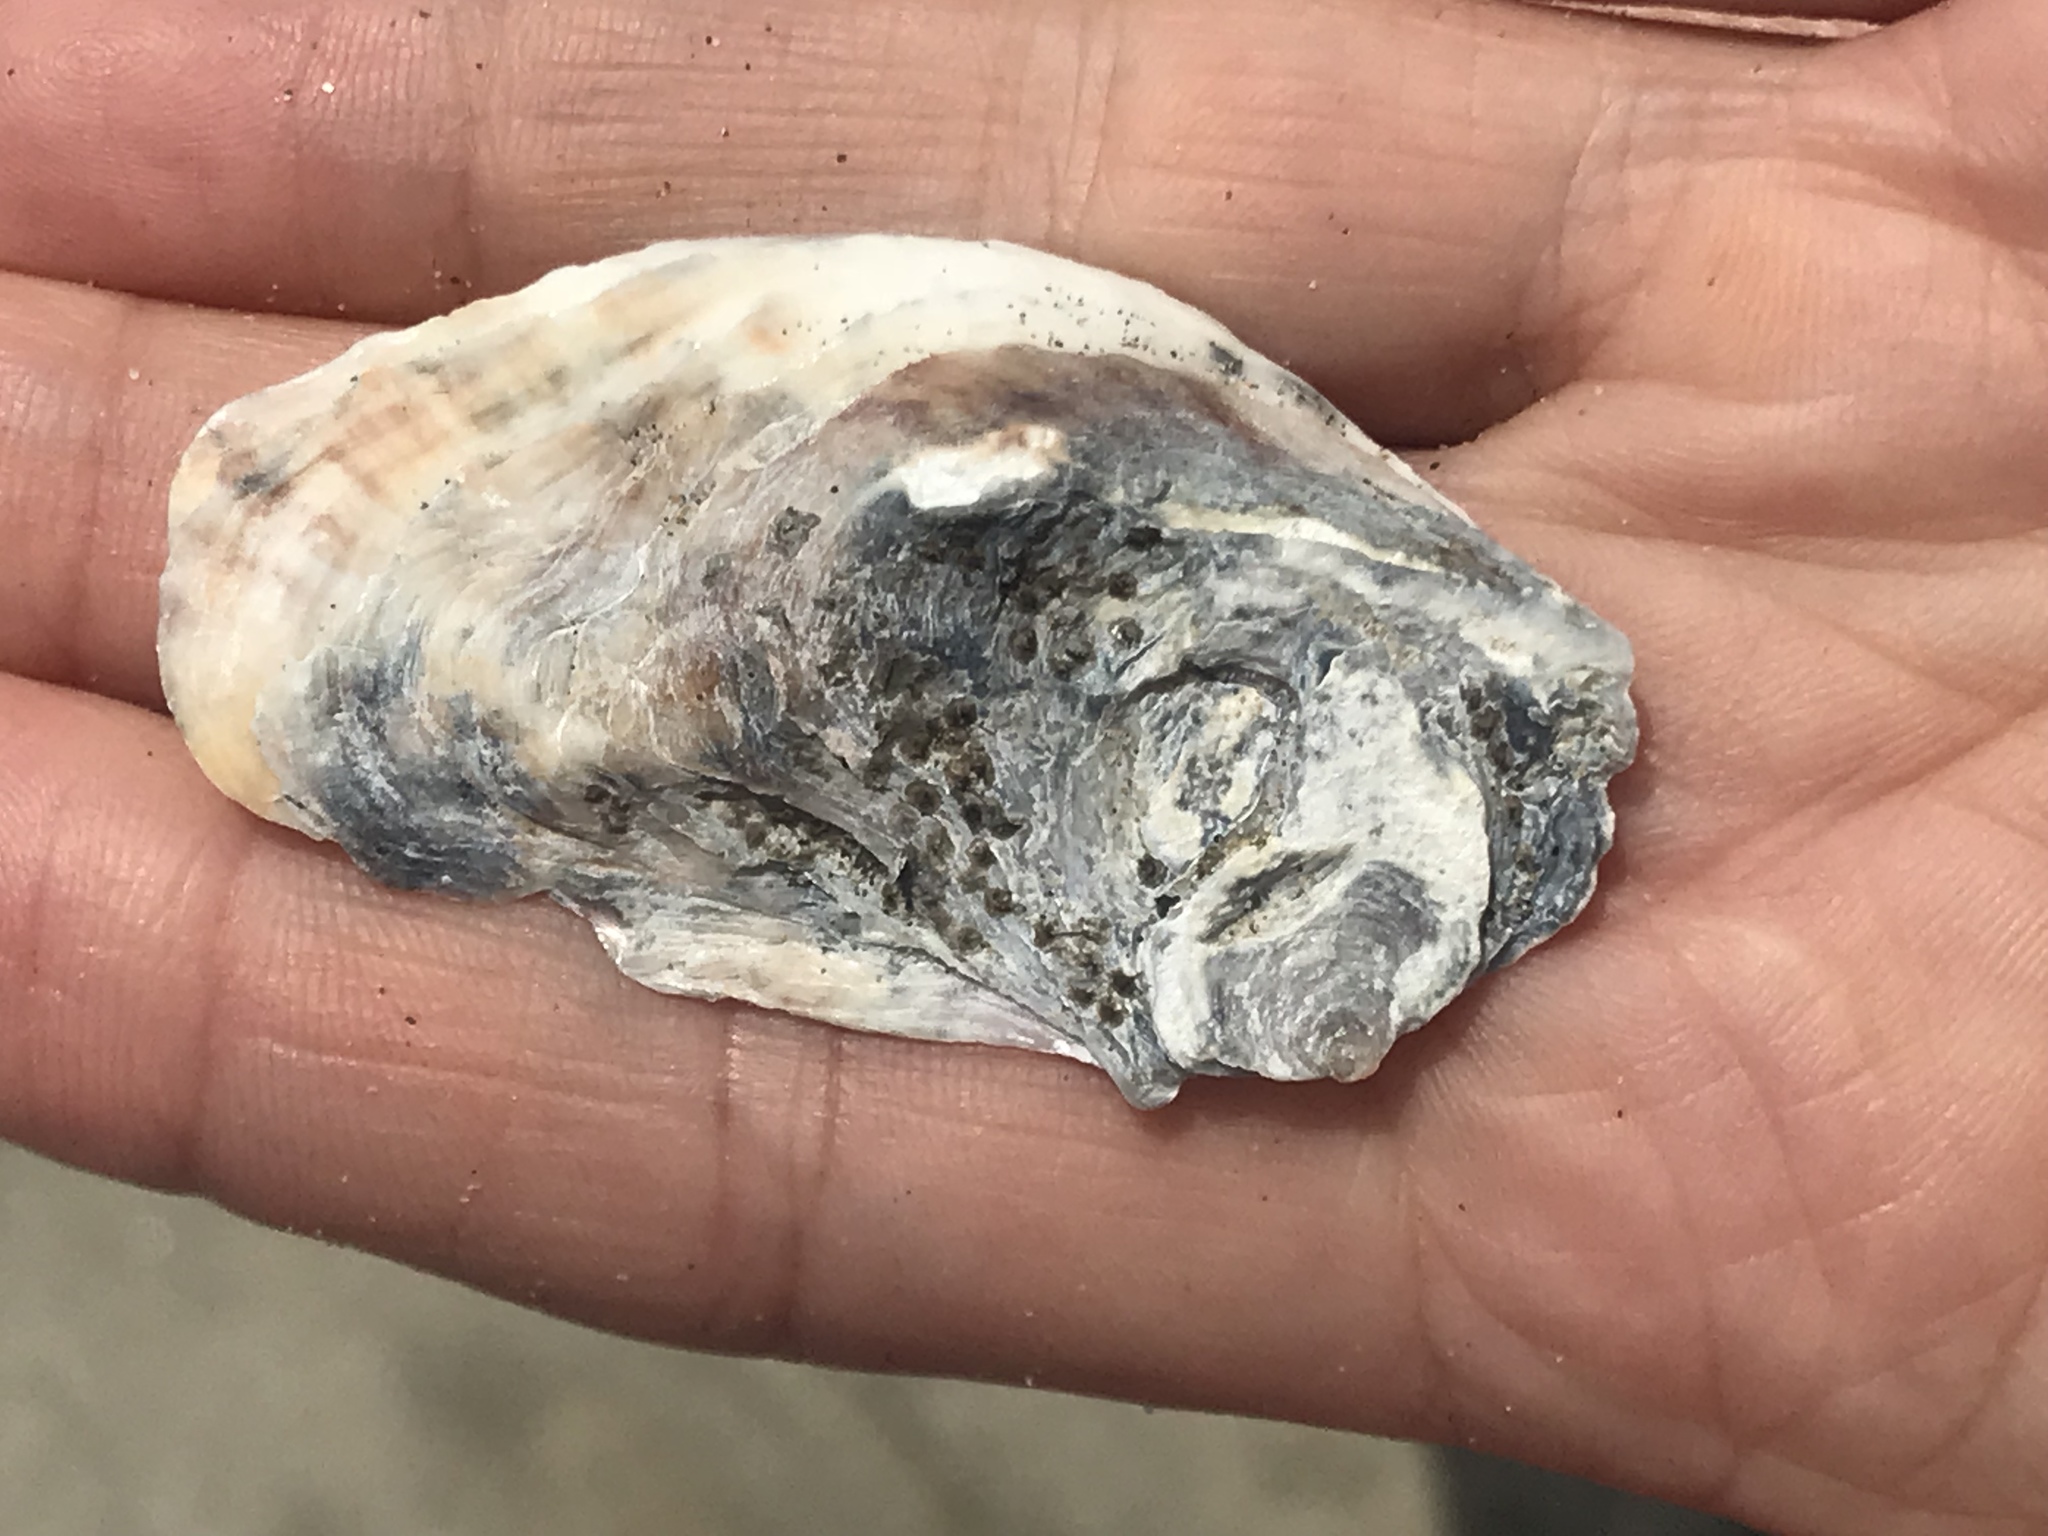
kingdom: Animalia
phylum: Mollusca
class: Bivalvia
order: Ostreida
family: Ostreidae
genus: Ostrea
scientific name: Ostrea lurida
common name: Olympia flat oyster
